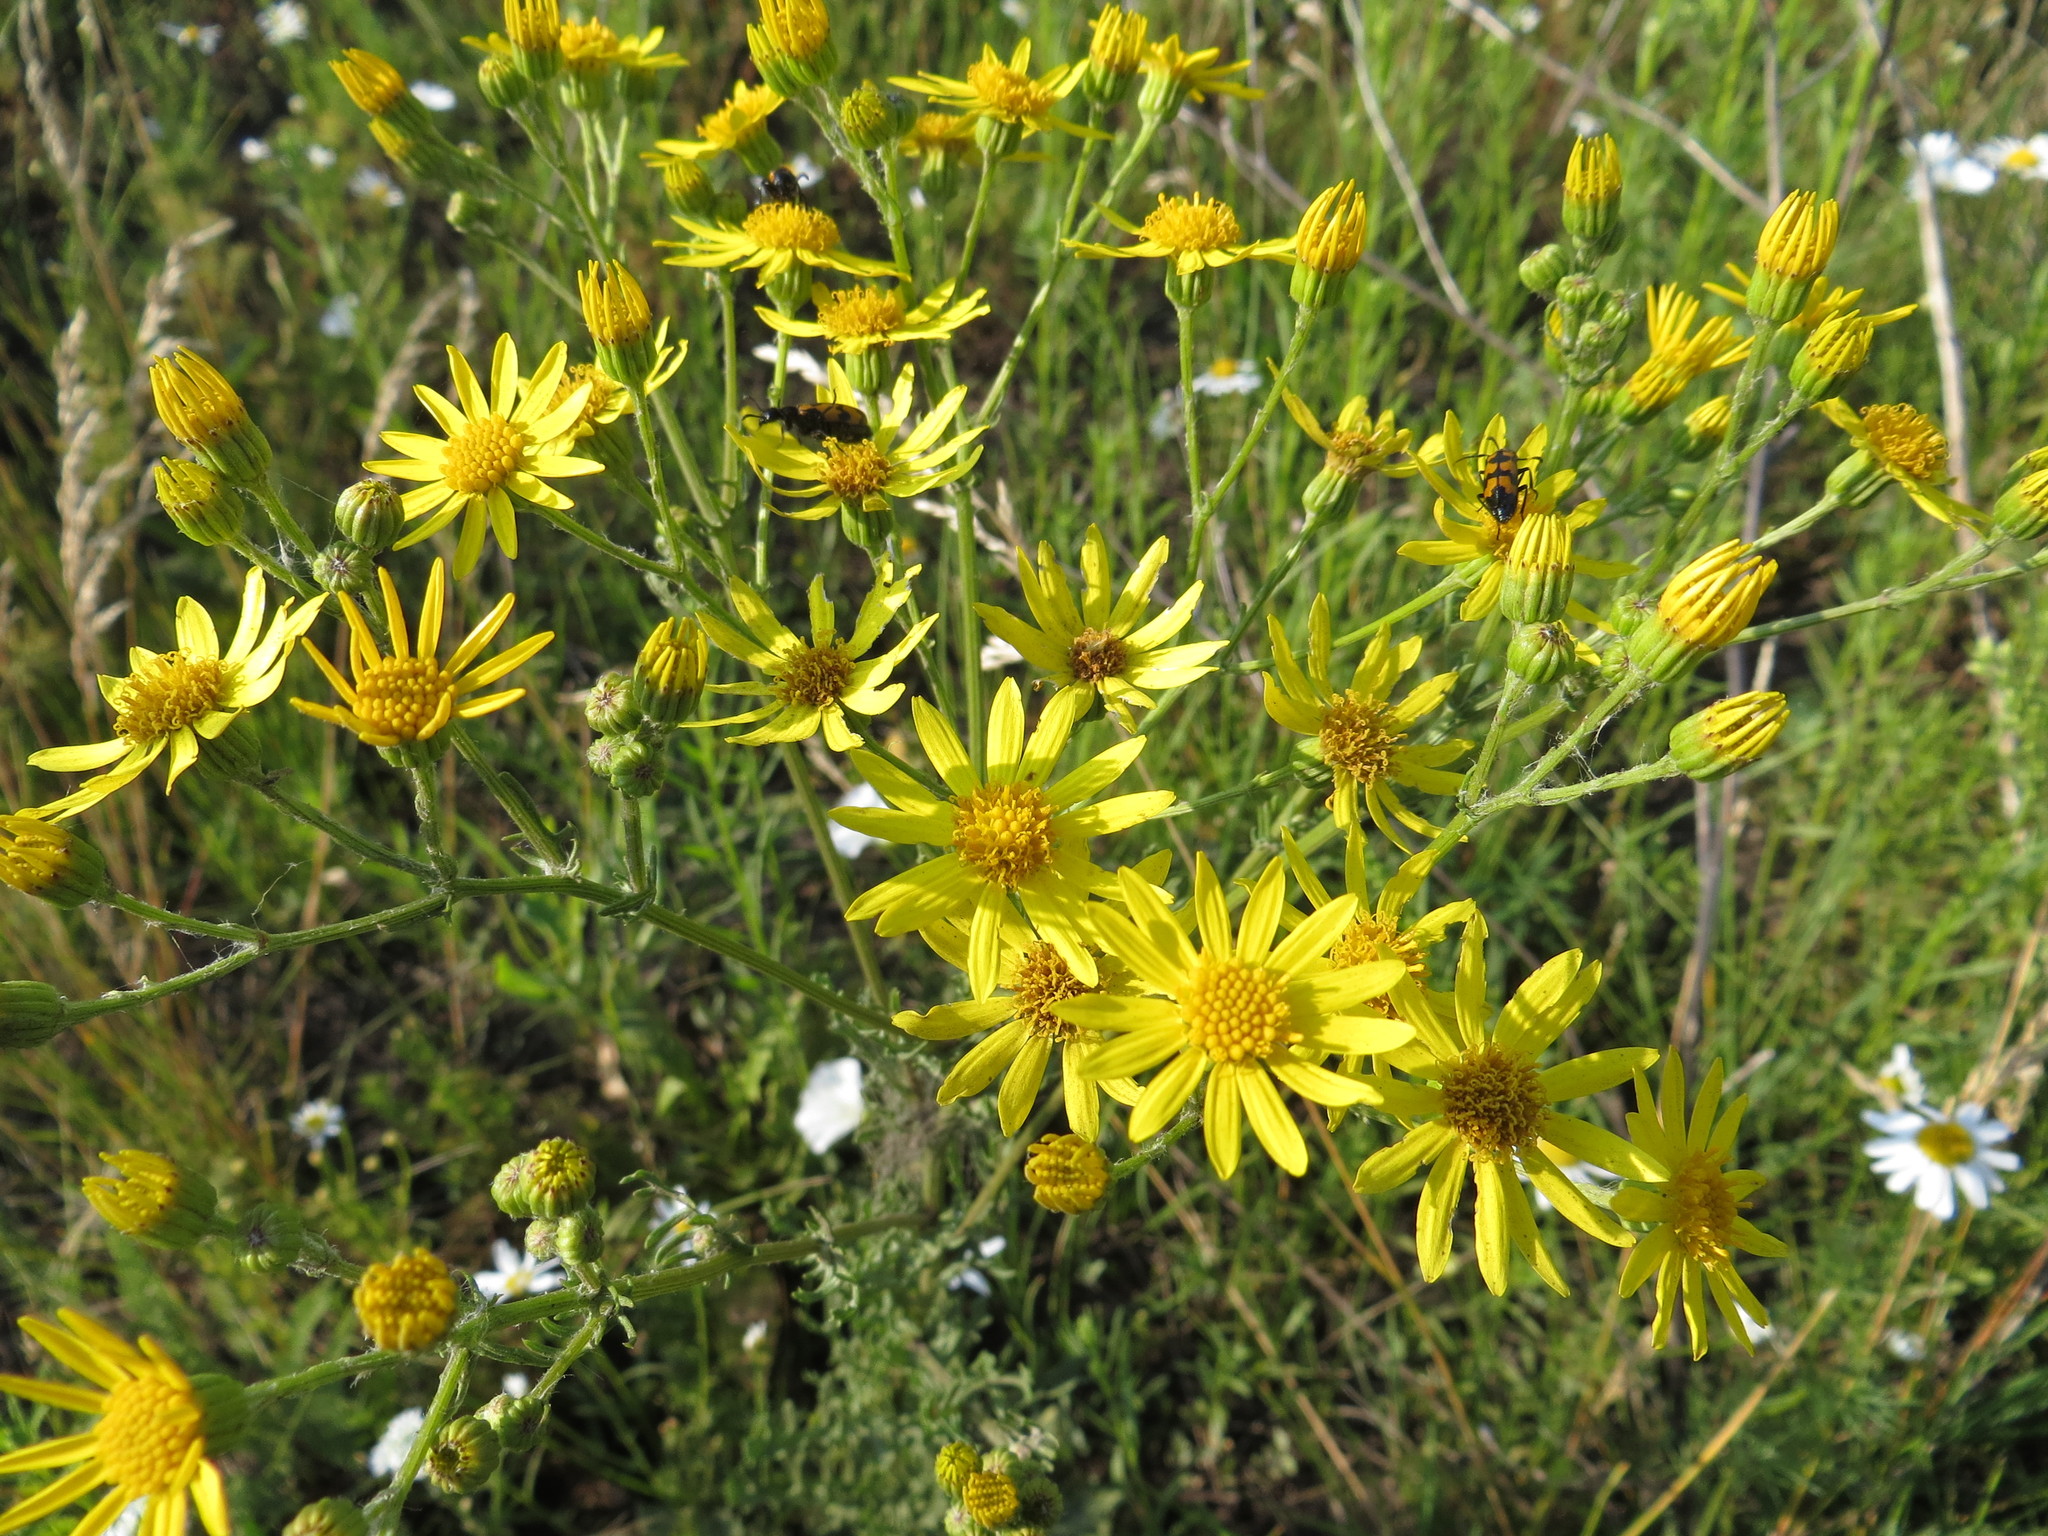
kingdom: Plantae
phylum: Tracheophyta
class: Magnoliopsida
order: Asterales
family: Asteraceae
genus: Jacobaea
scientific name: Jacobaea vulgaris
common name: Stinking willie
